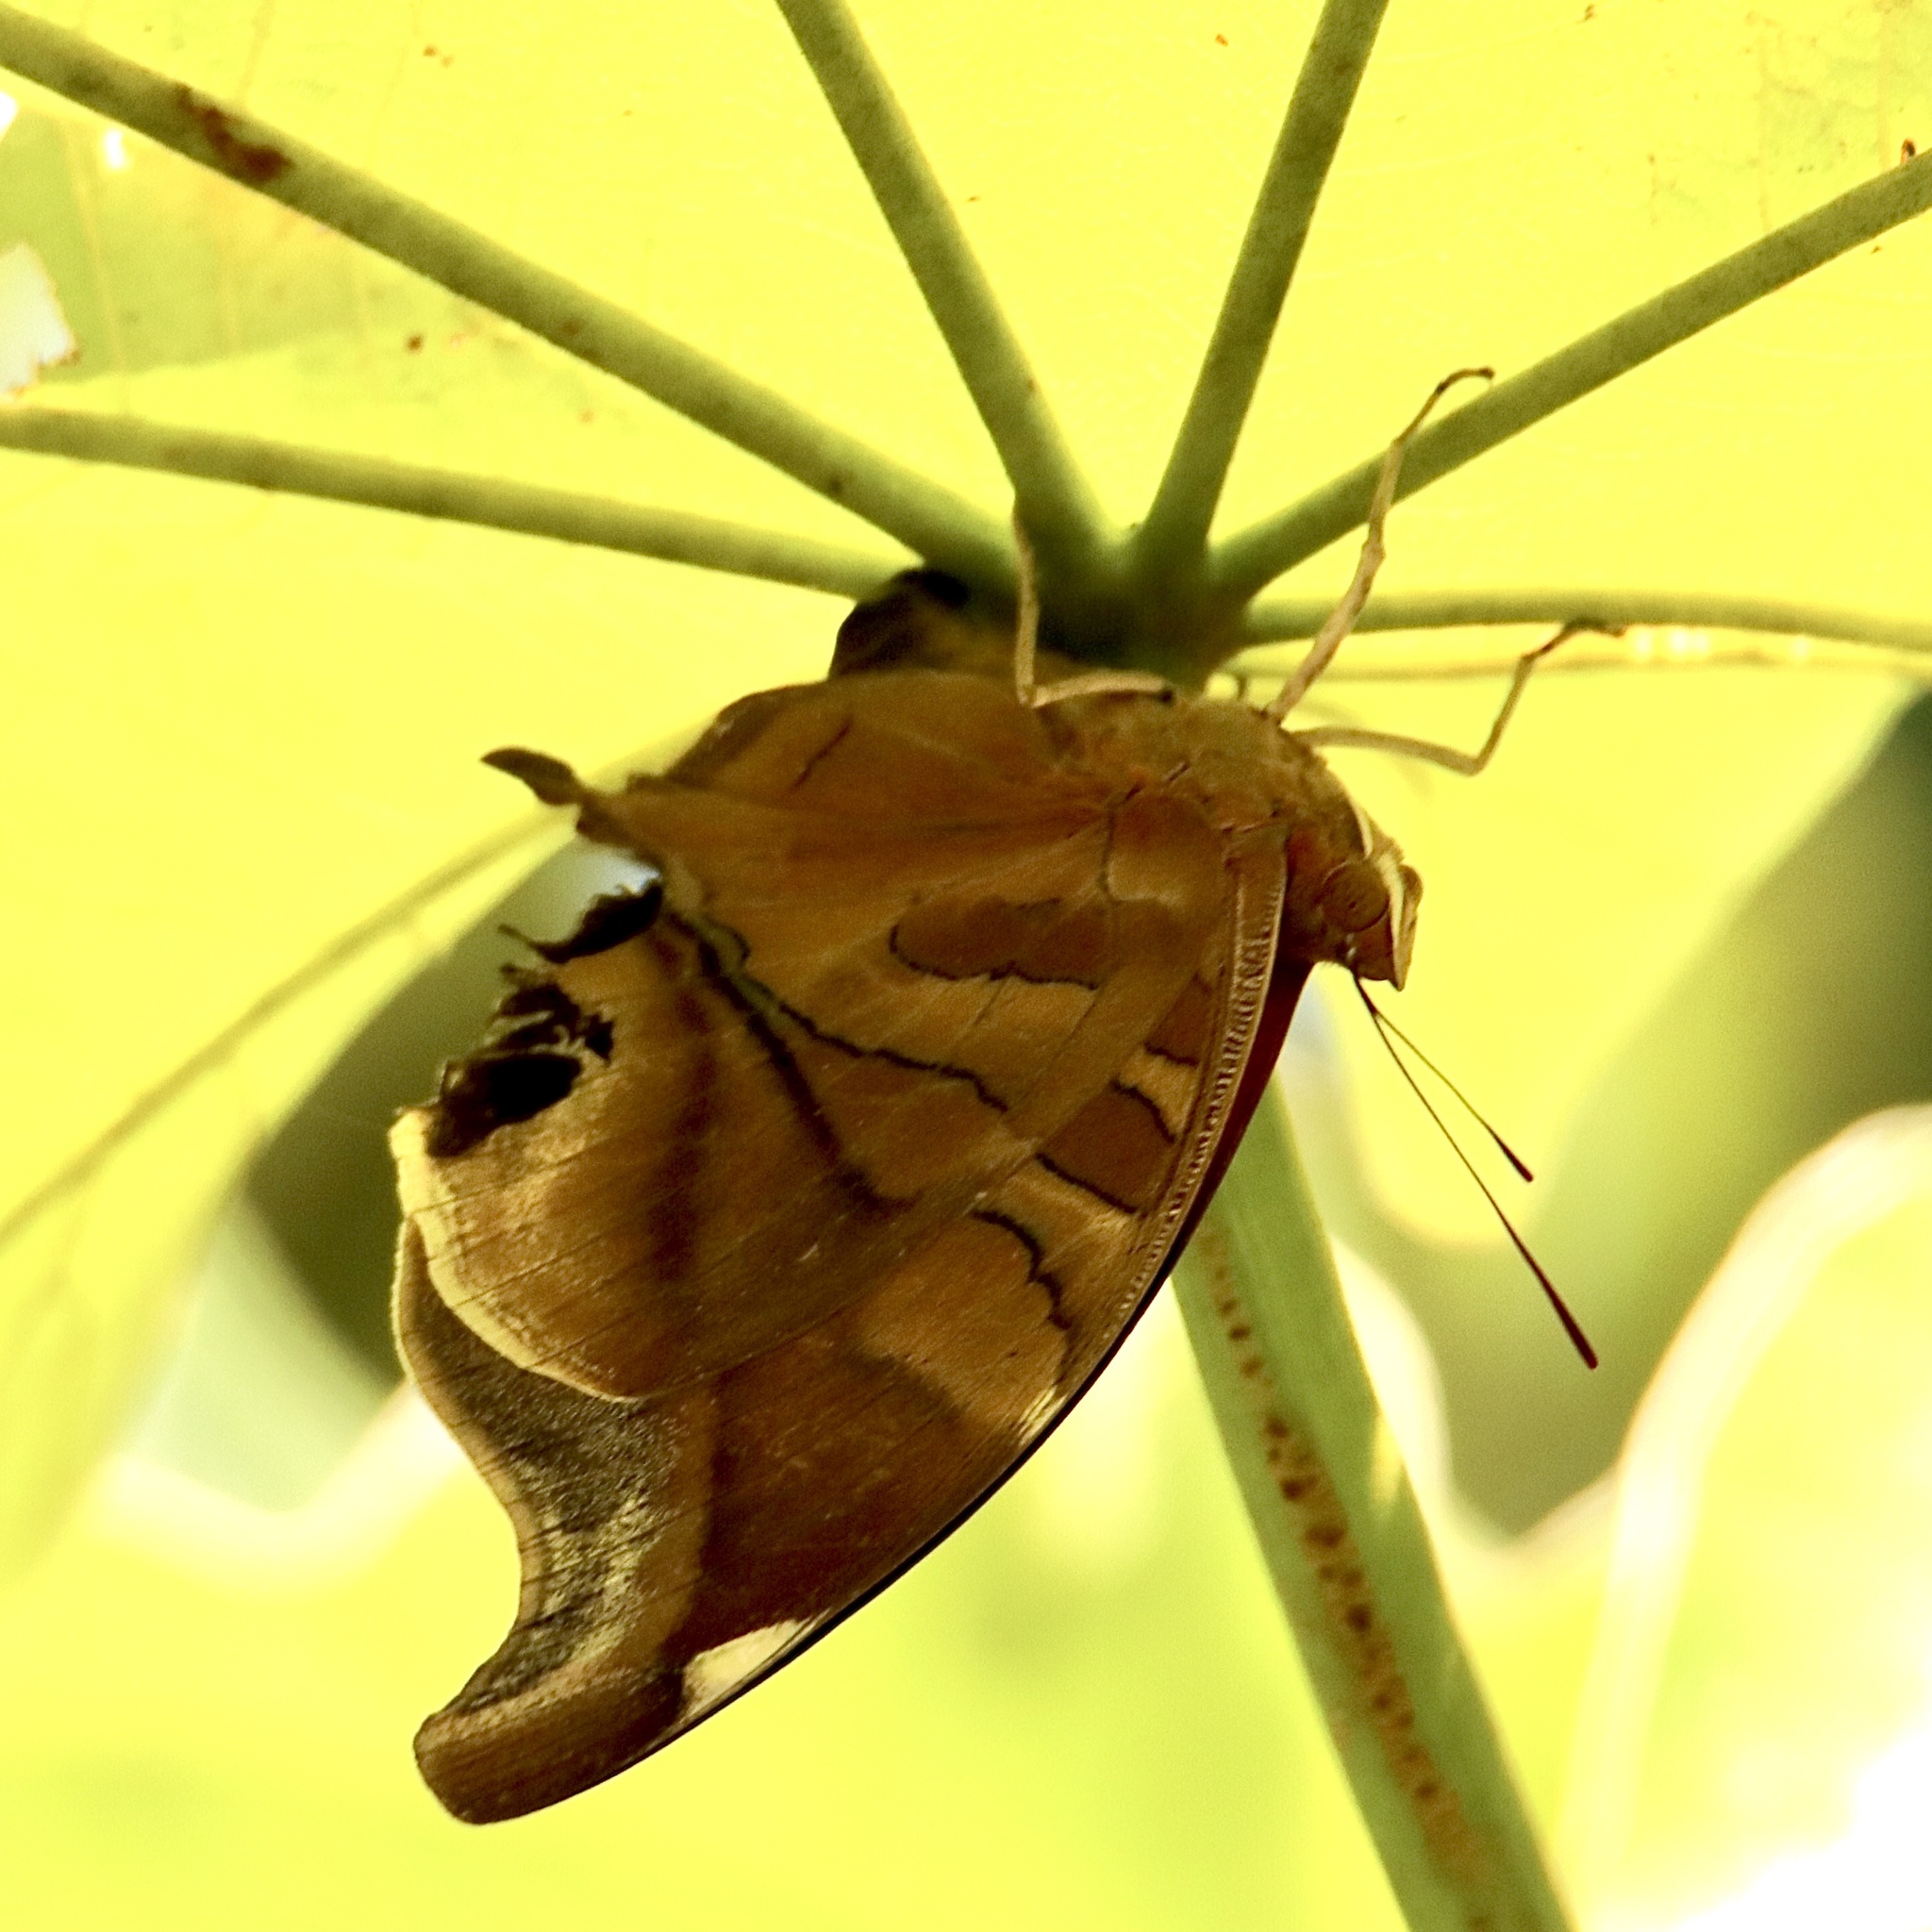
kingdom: Animalia
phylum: Arthropoda
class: Insecta
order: Lepidoptera
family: Nymphalidae
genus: Historis
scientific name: Historis odius
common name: Orion cecropian
